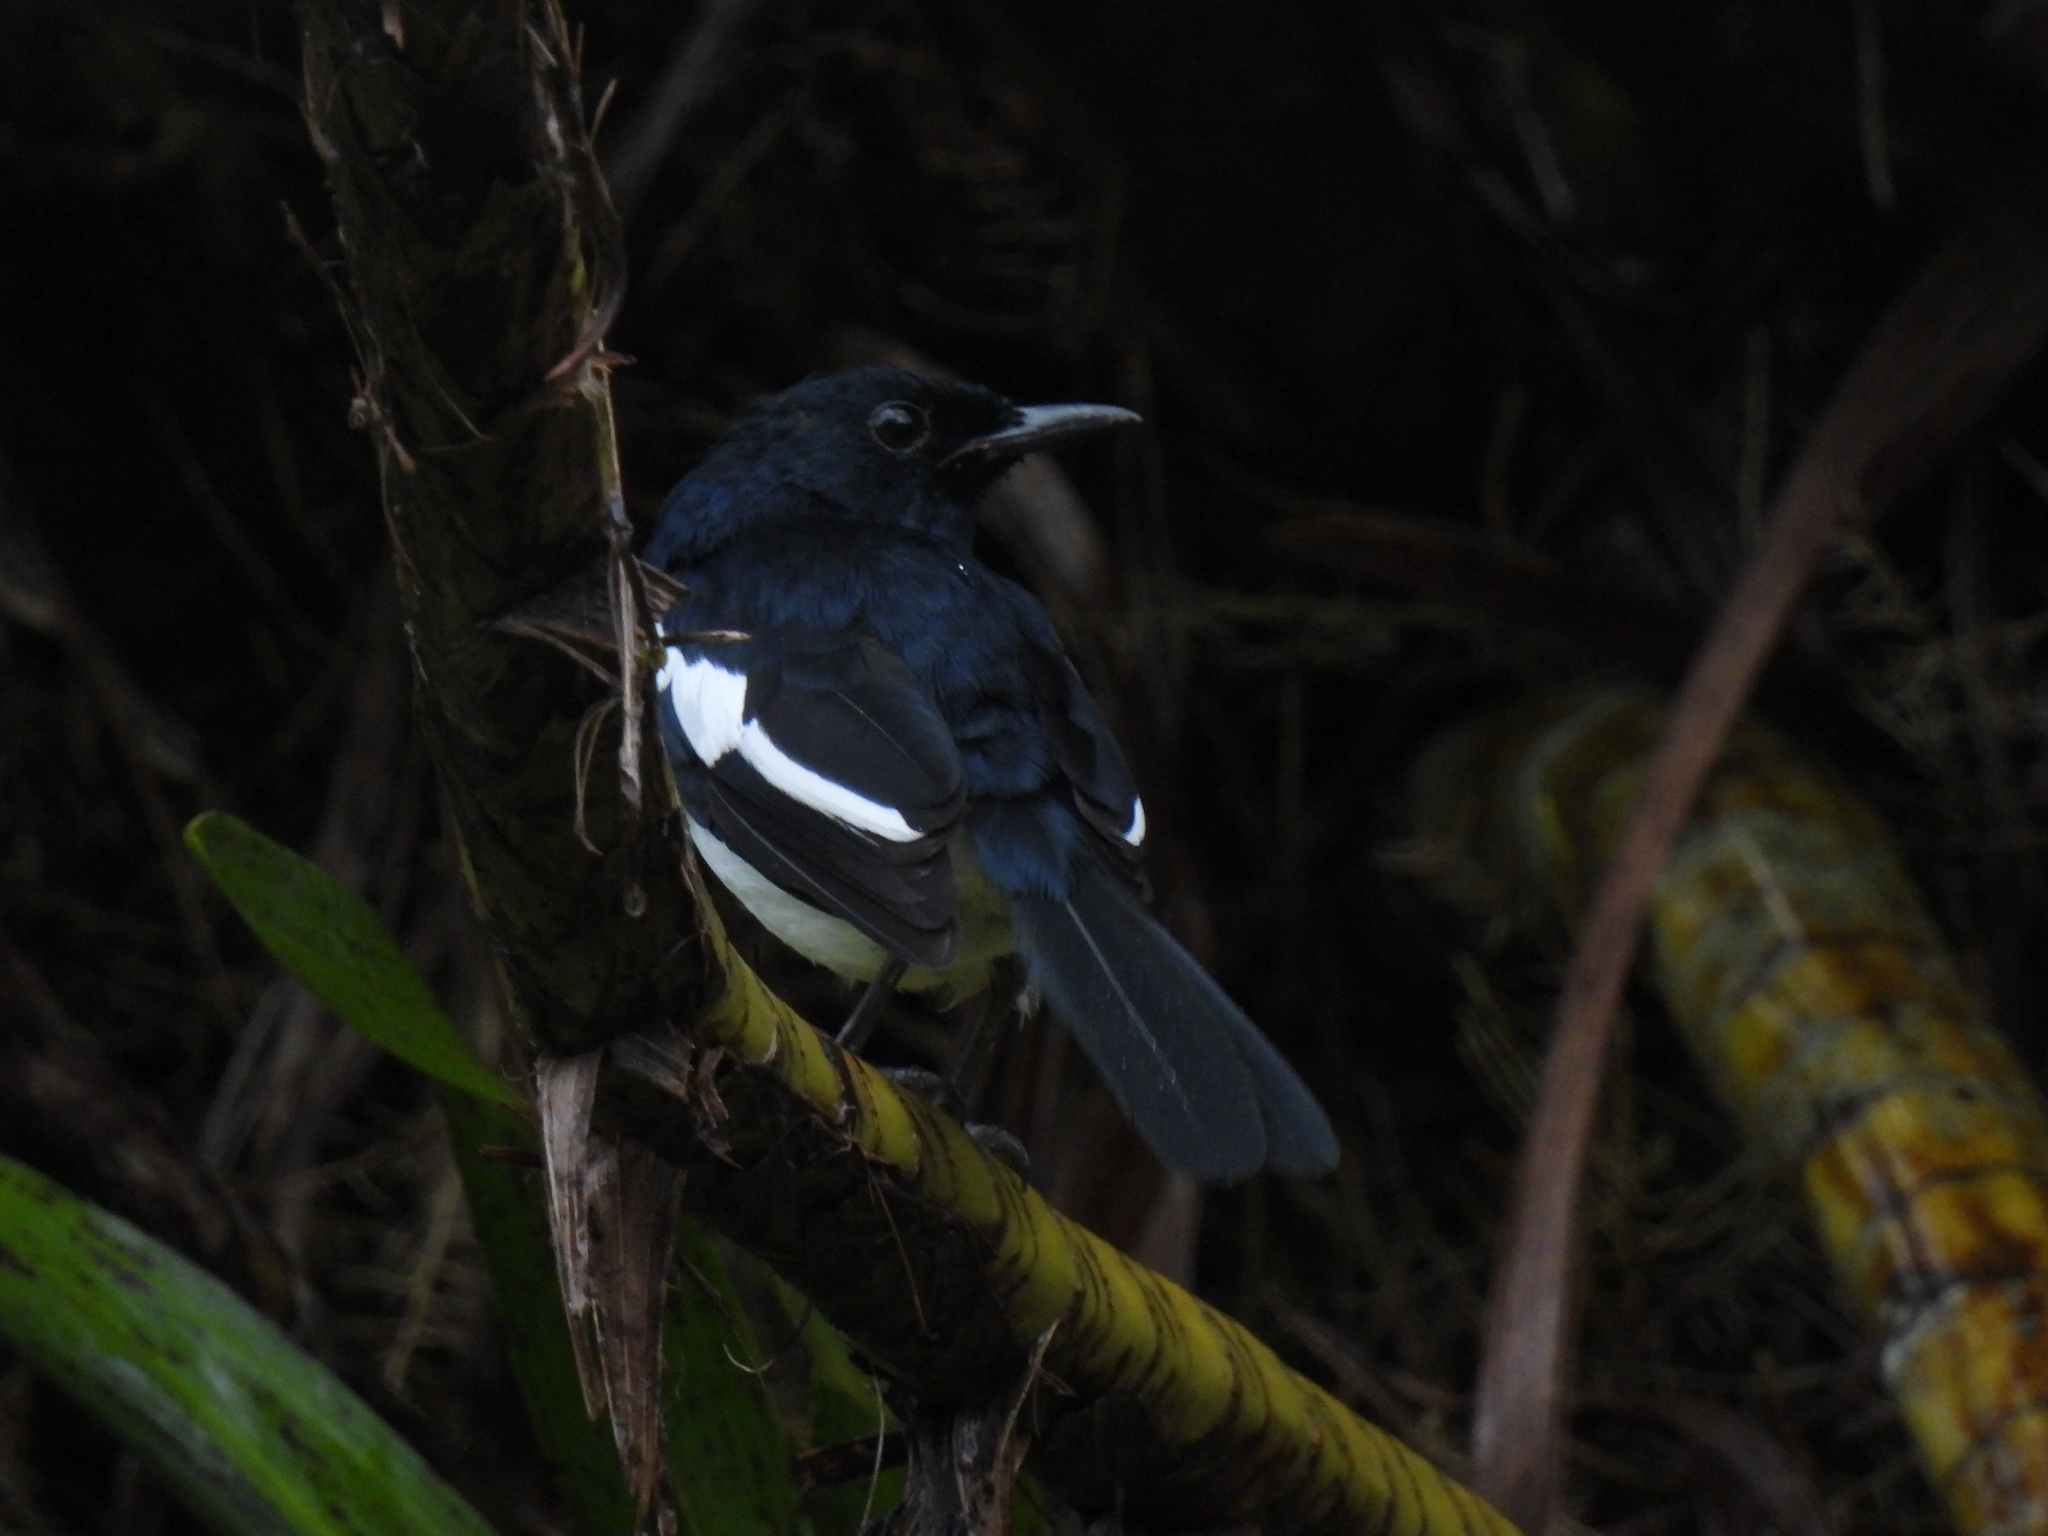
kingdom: Animalia
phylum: Chordata
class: Aves
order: Passeriformes
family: Muscicapidae
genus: Copsychus
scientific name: Copsychus saularis
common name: Oriental magpie-robin
